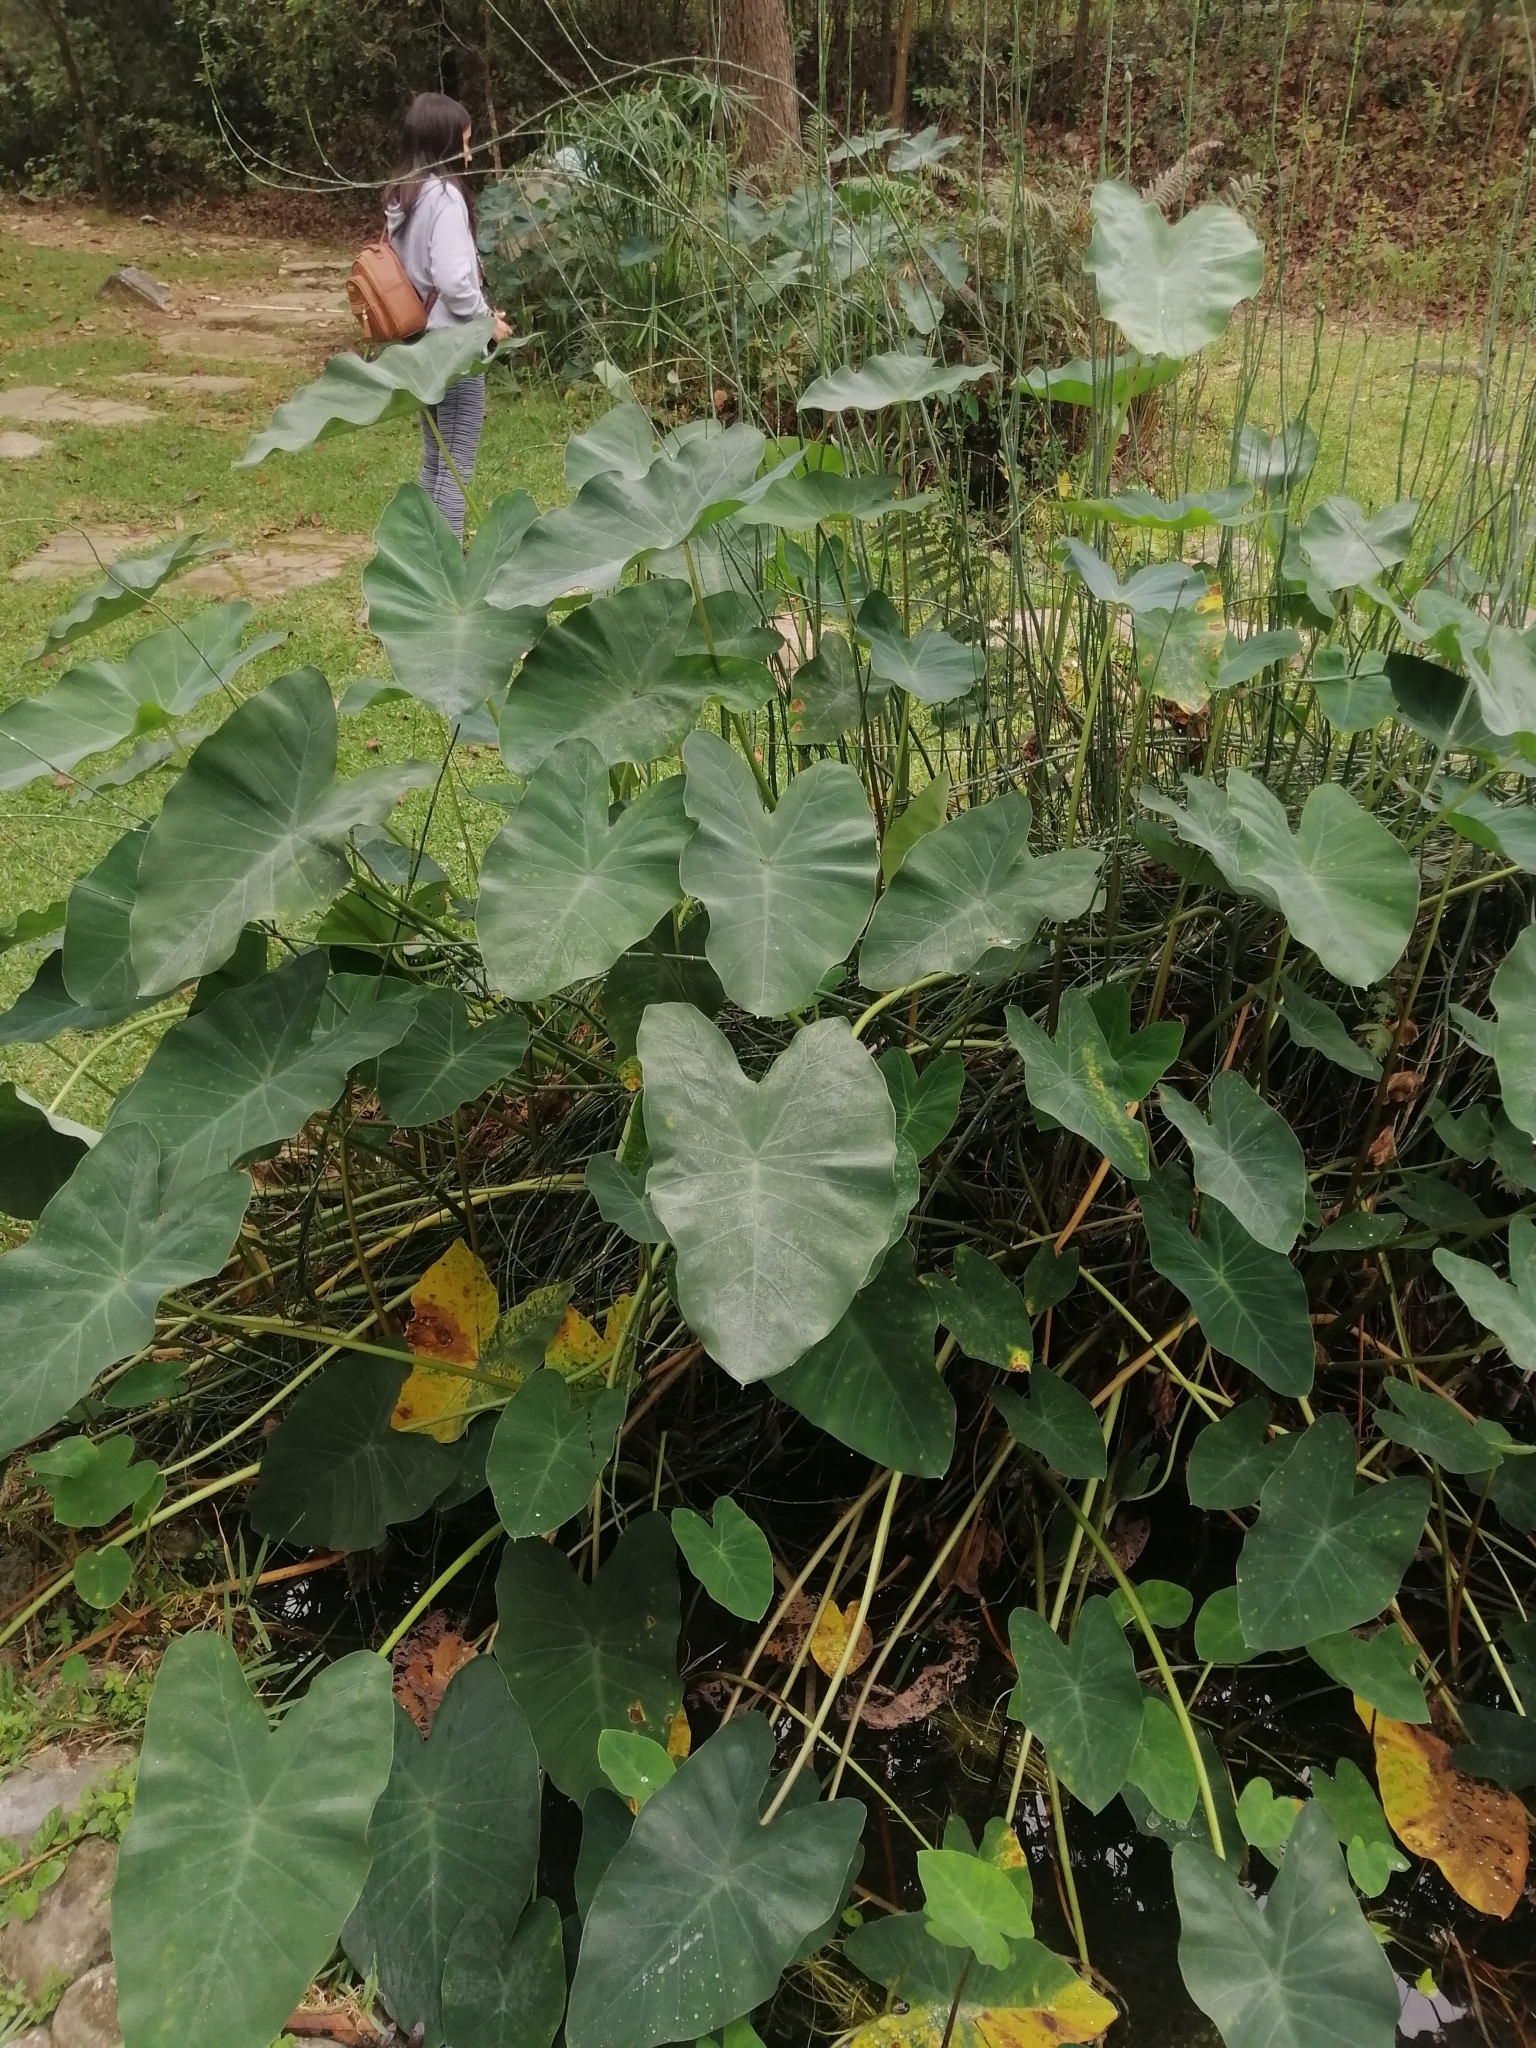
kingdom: Plantae
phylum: Tracheophyta
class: Liliopsida
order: Alismatales
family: Araceae
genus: Colocasia
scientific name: Colocasia esculenta
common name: Taro
